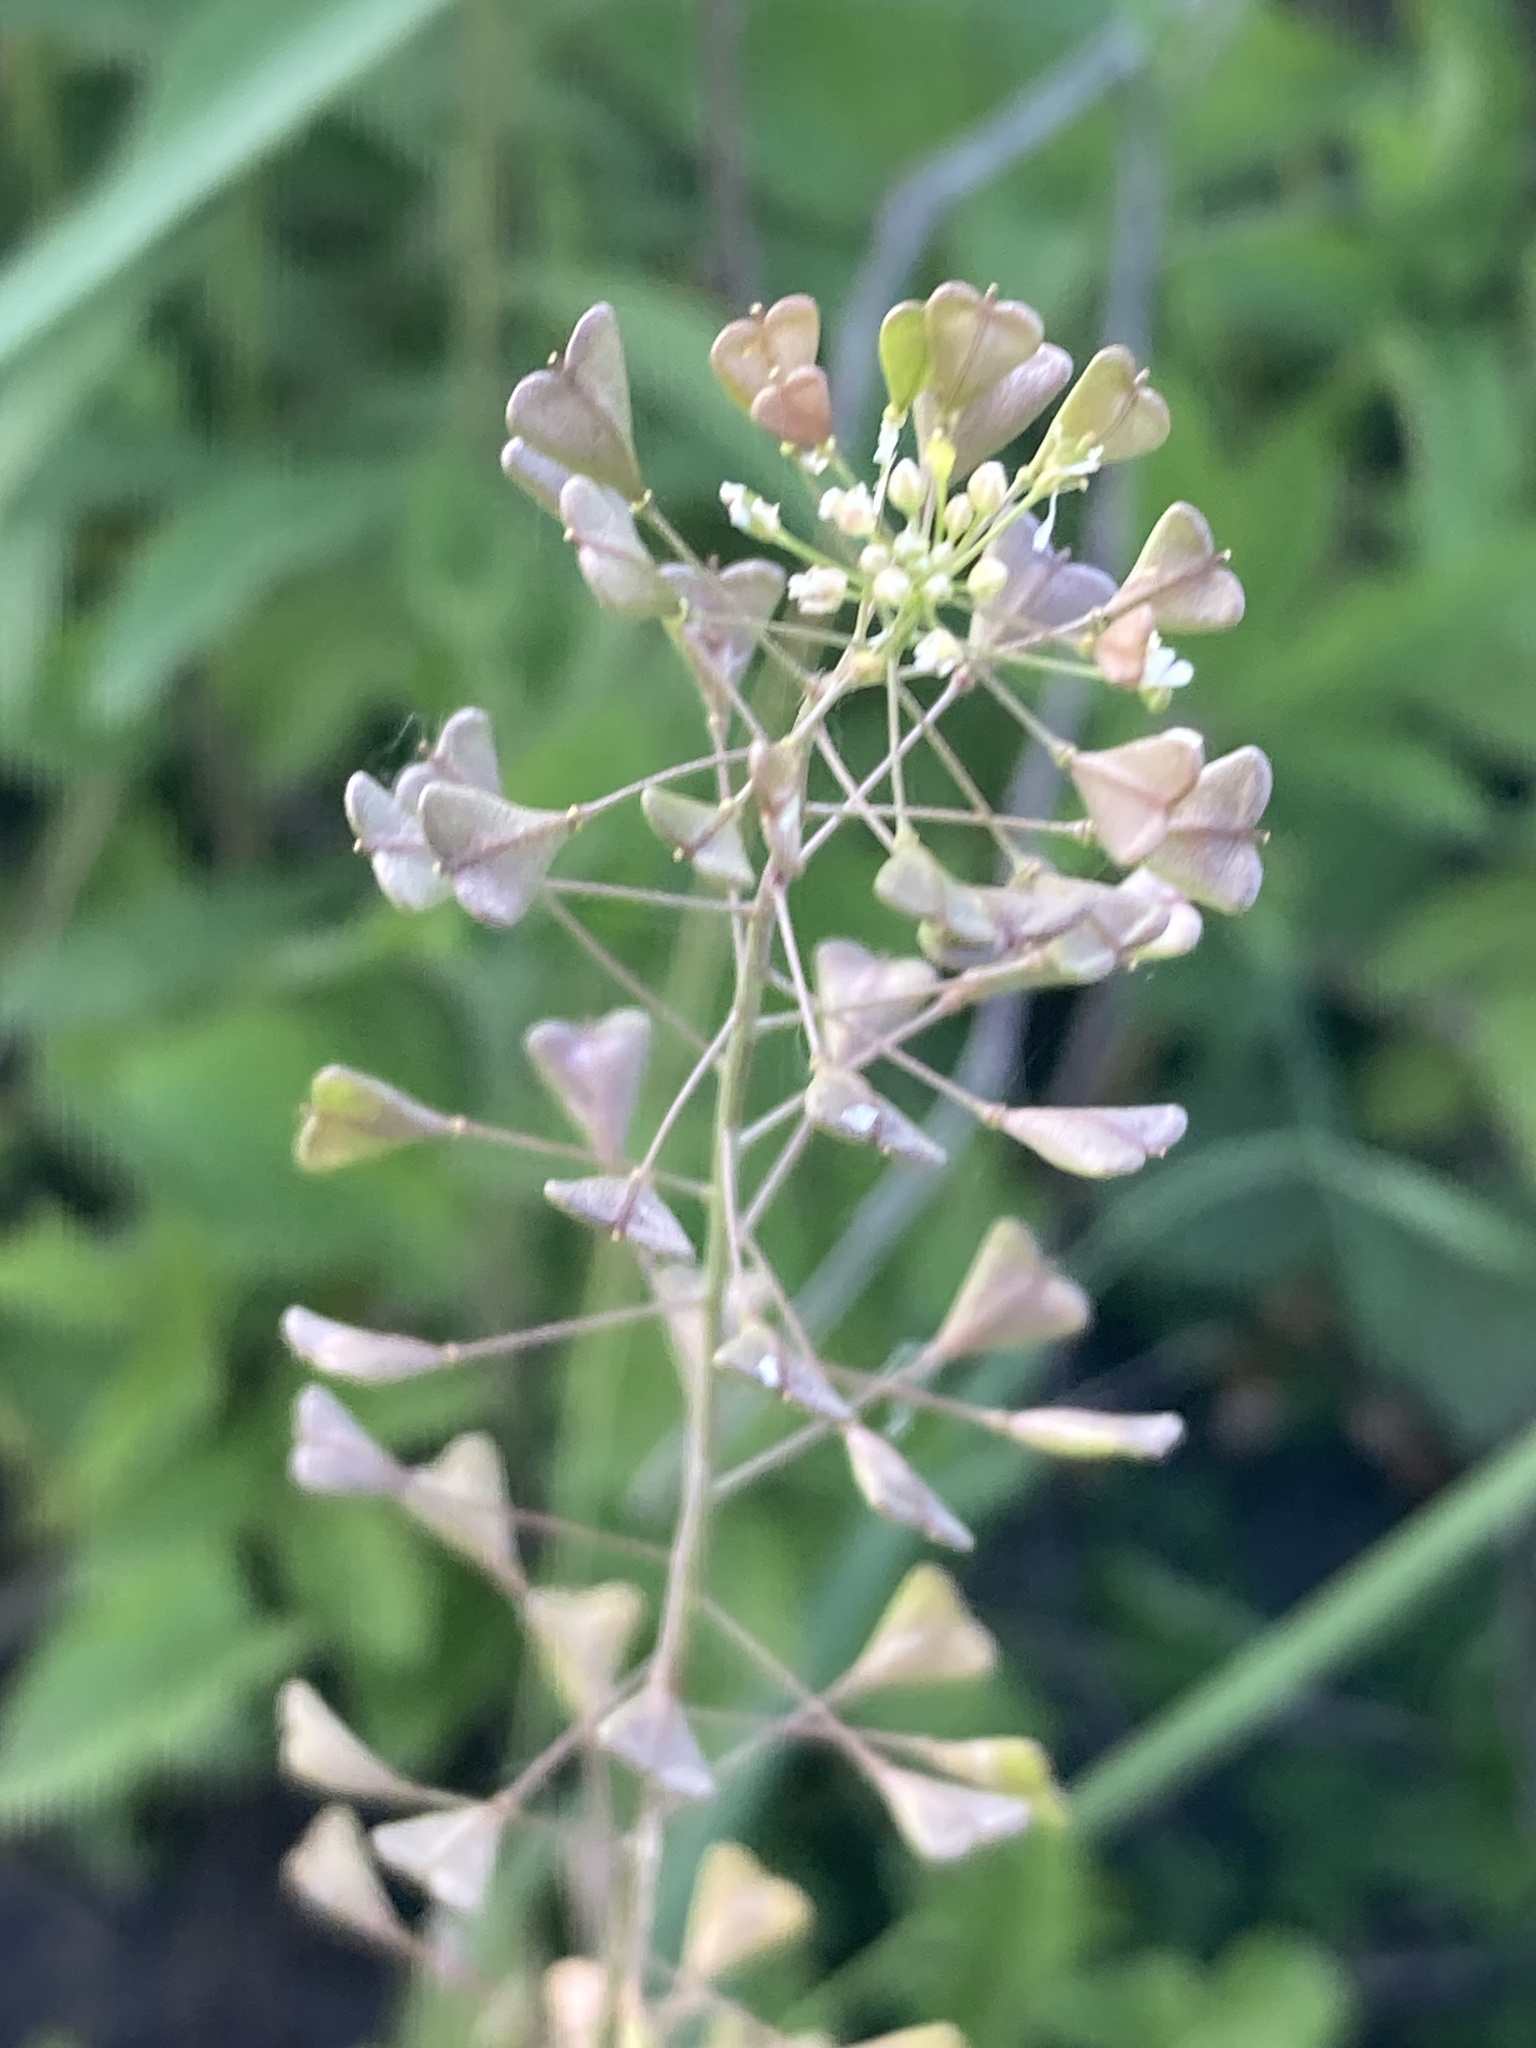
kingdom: Plantae
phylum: Tracheophyta
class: Magnoliopsida
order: Brassicales
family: Brassicaceae
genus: Capsella
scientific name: Capsella bursa-pastoris
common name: Shepherd's purse
